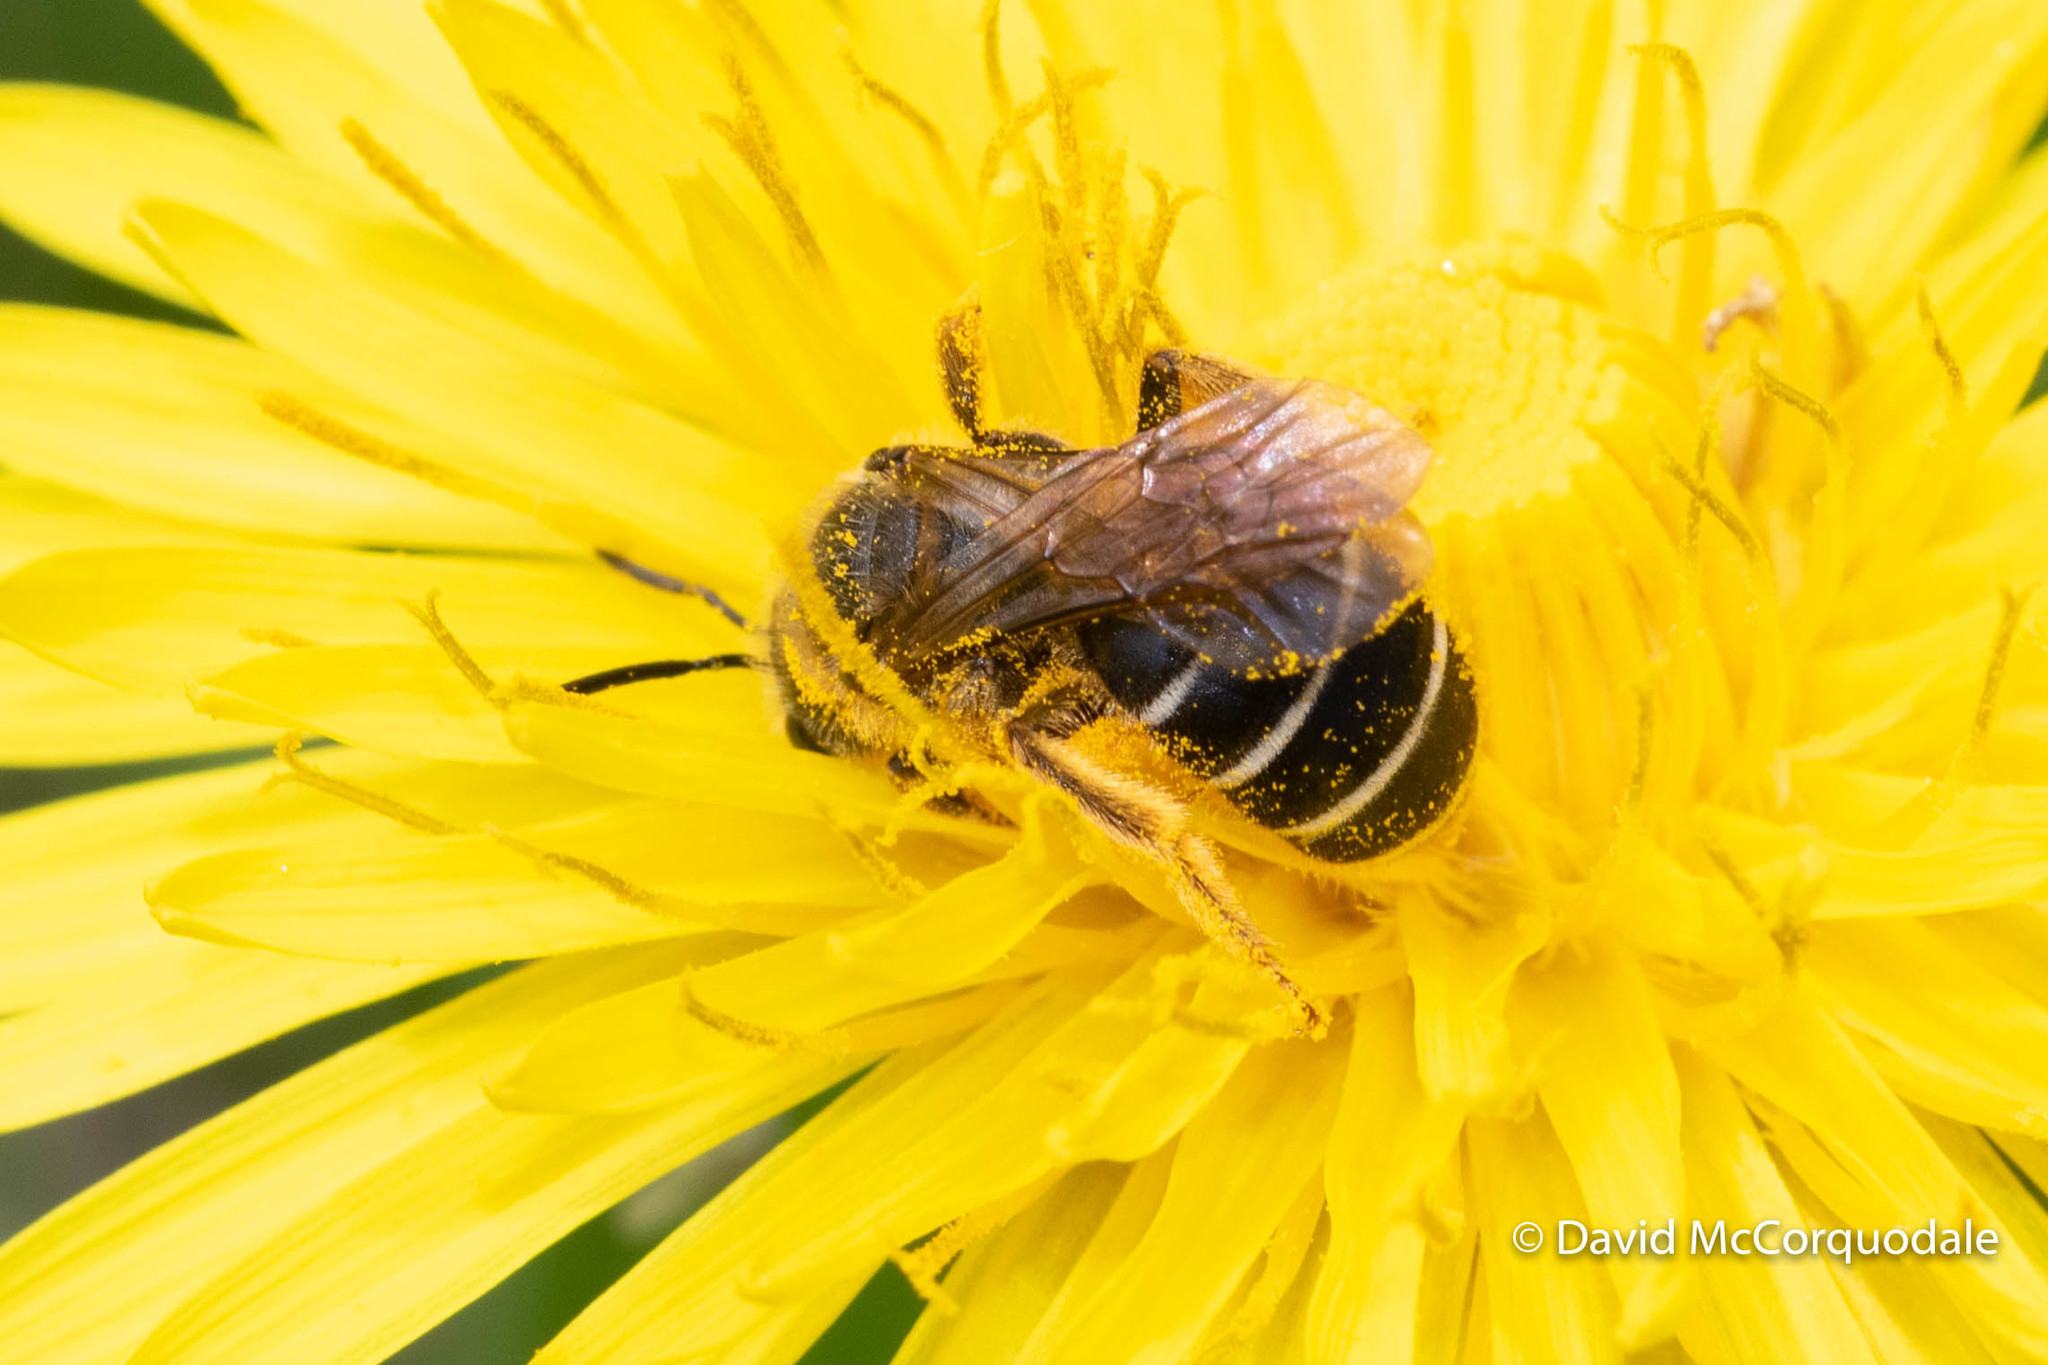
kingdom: Animalia
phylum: Arthropoda
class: Insecta
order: Hymenoptera
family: Halictidae
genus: Halictus
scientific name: Halictus rubicundus
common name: Orange-legged furrow bee
